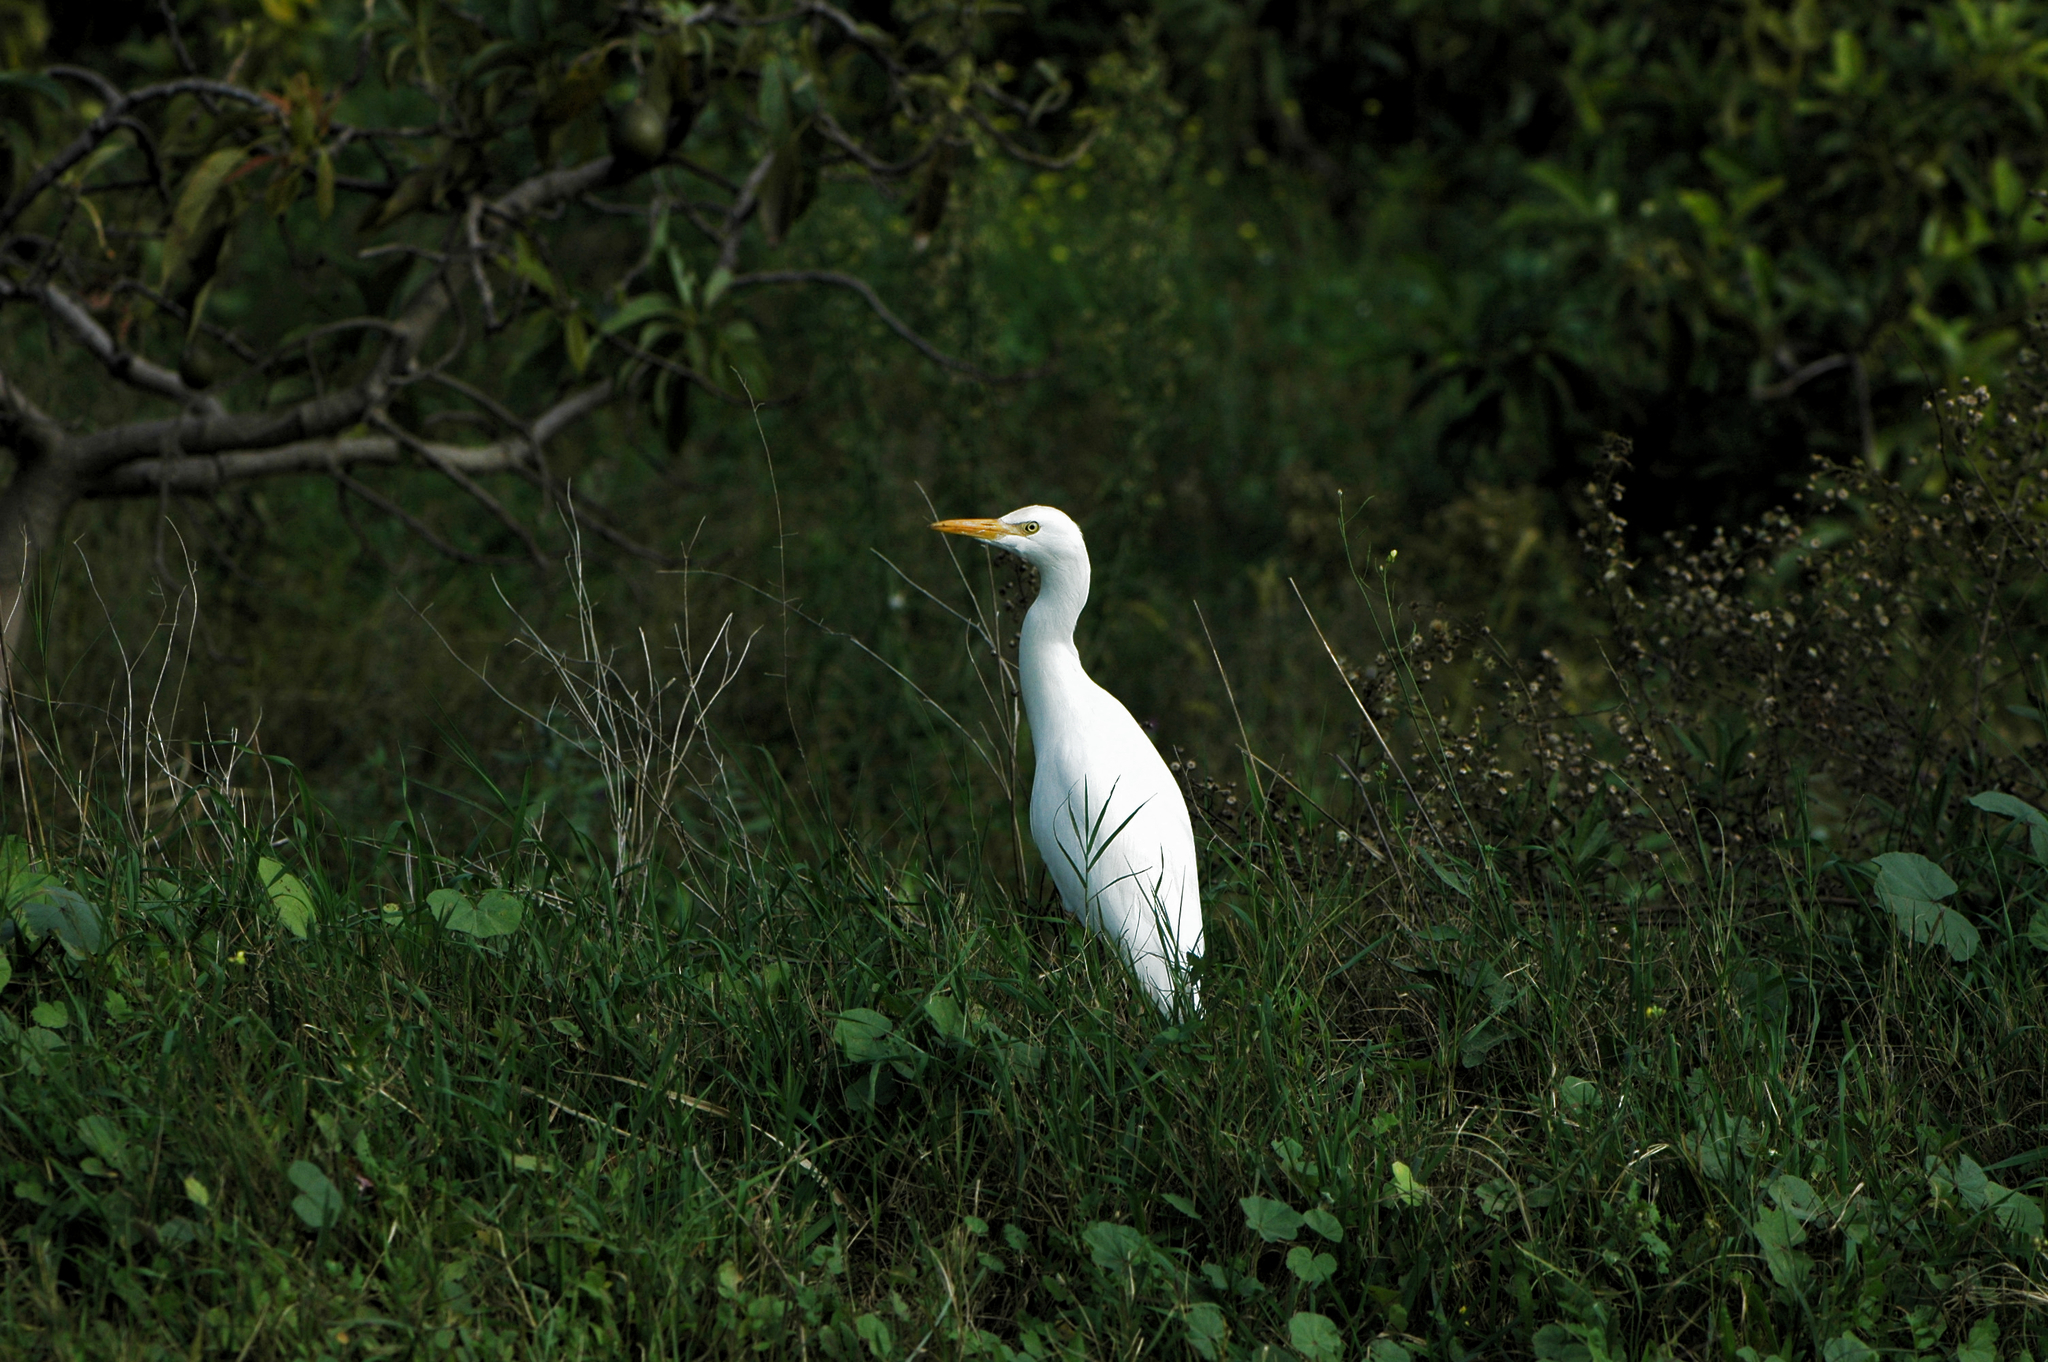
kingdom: Animalia
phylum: Chordata
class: Aves
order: Pelecaniformes
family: Ardeidae
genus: Bubulcus
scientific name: Bubulcus ibis
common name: Cattle egret
